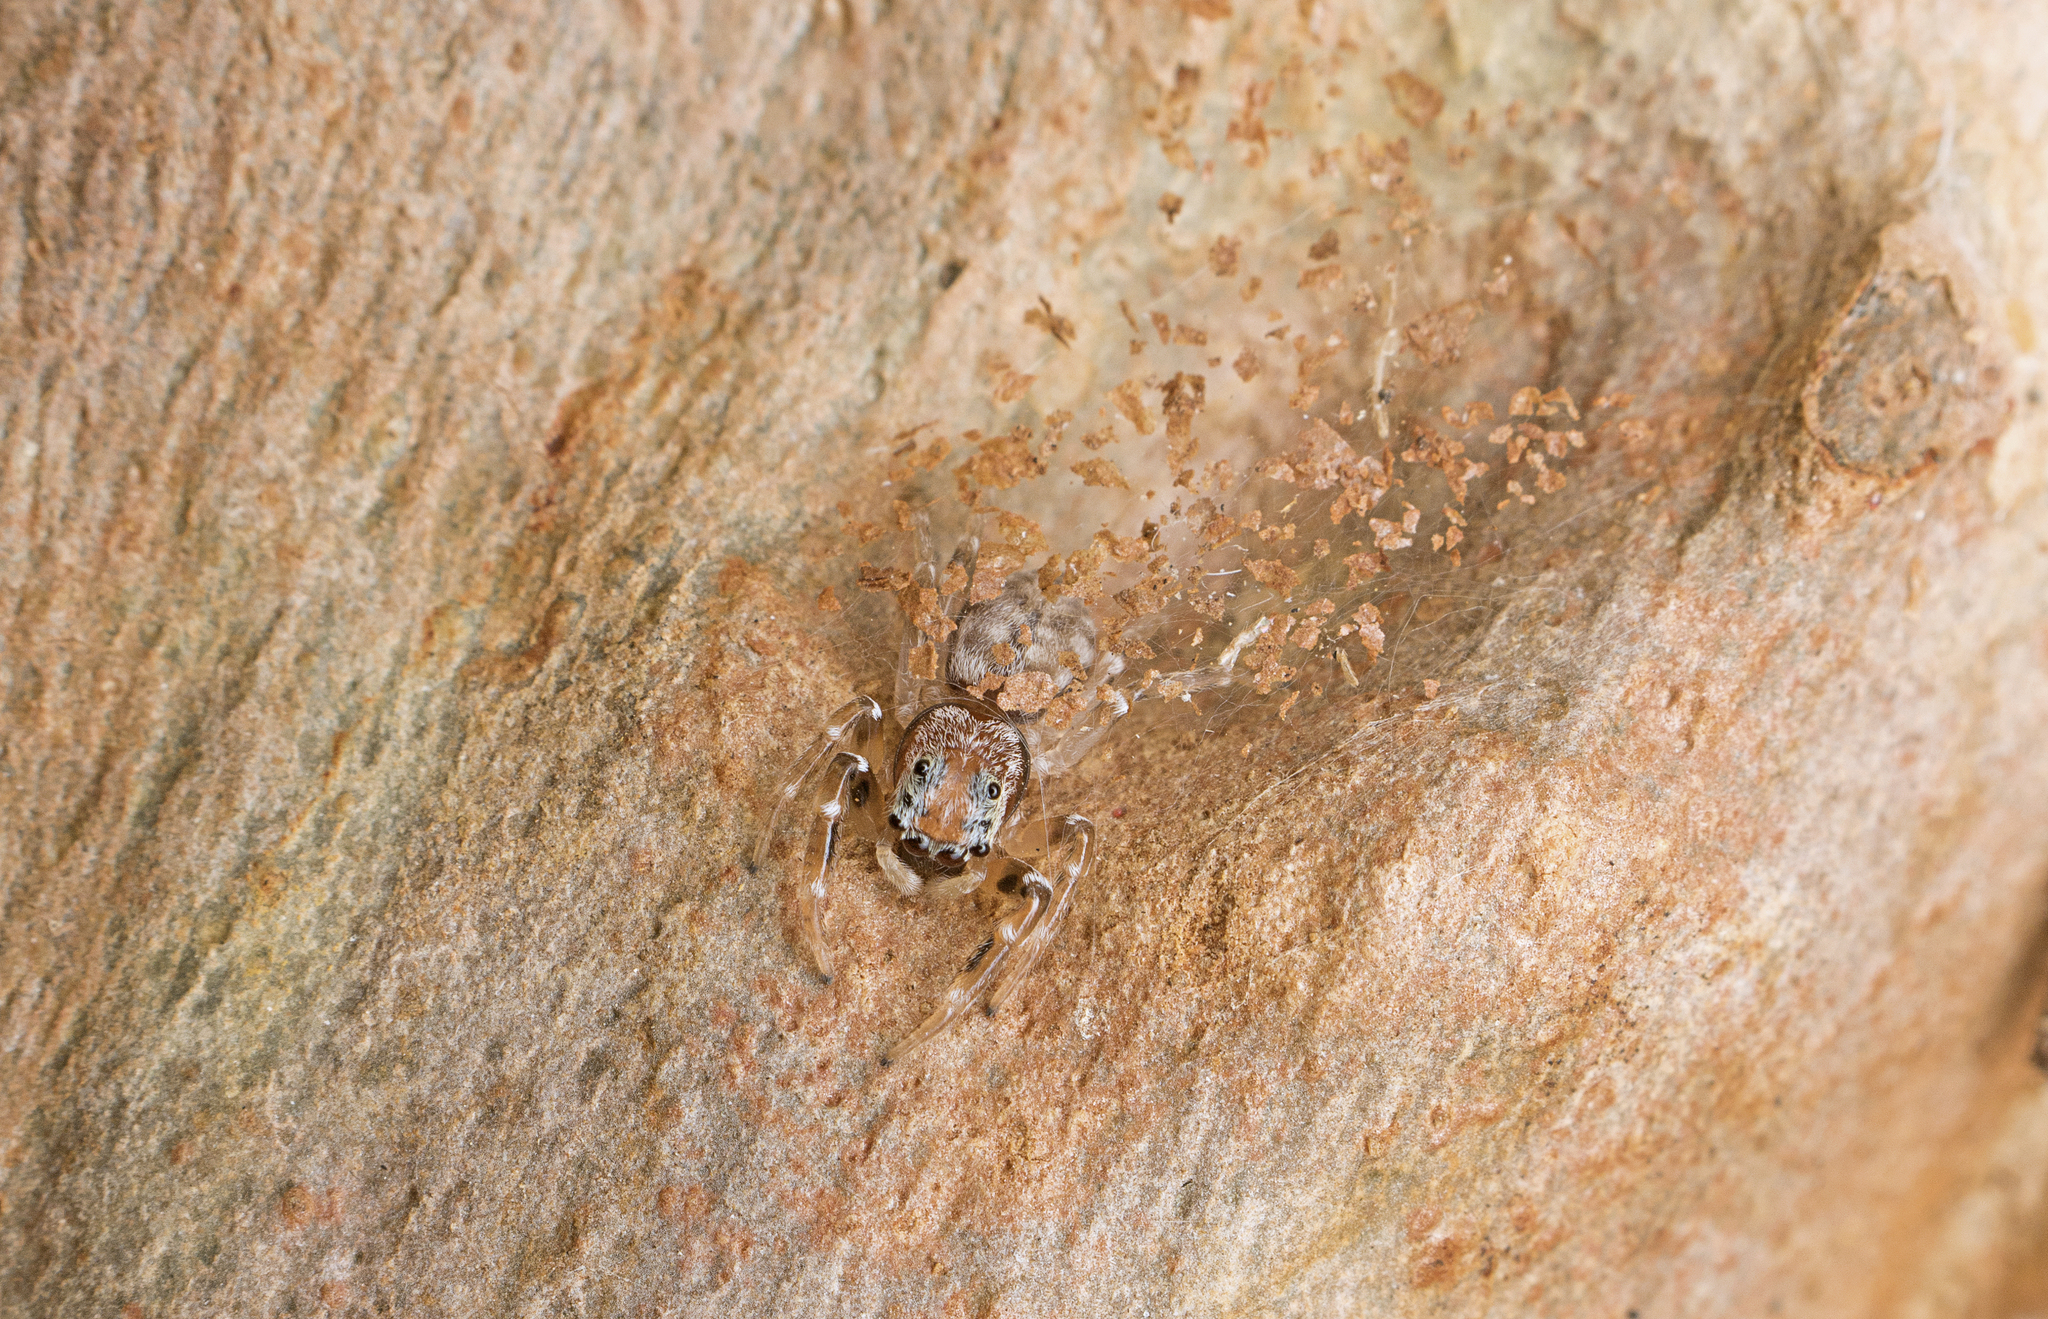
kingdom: Animalia
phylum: Arthropoda
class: Arachnida
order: Araneae
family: Salticidae
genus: Arasia
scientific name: Arasia mollicoma
